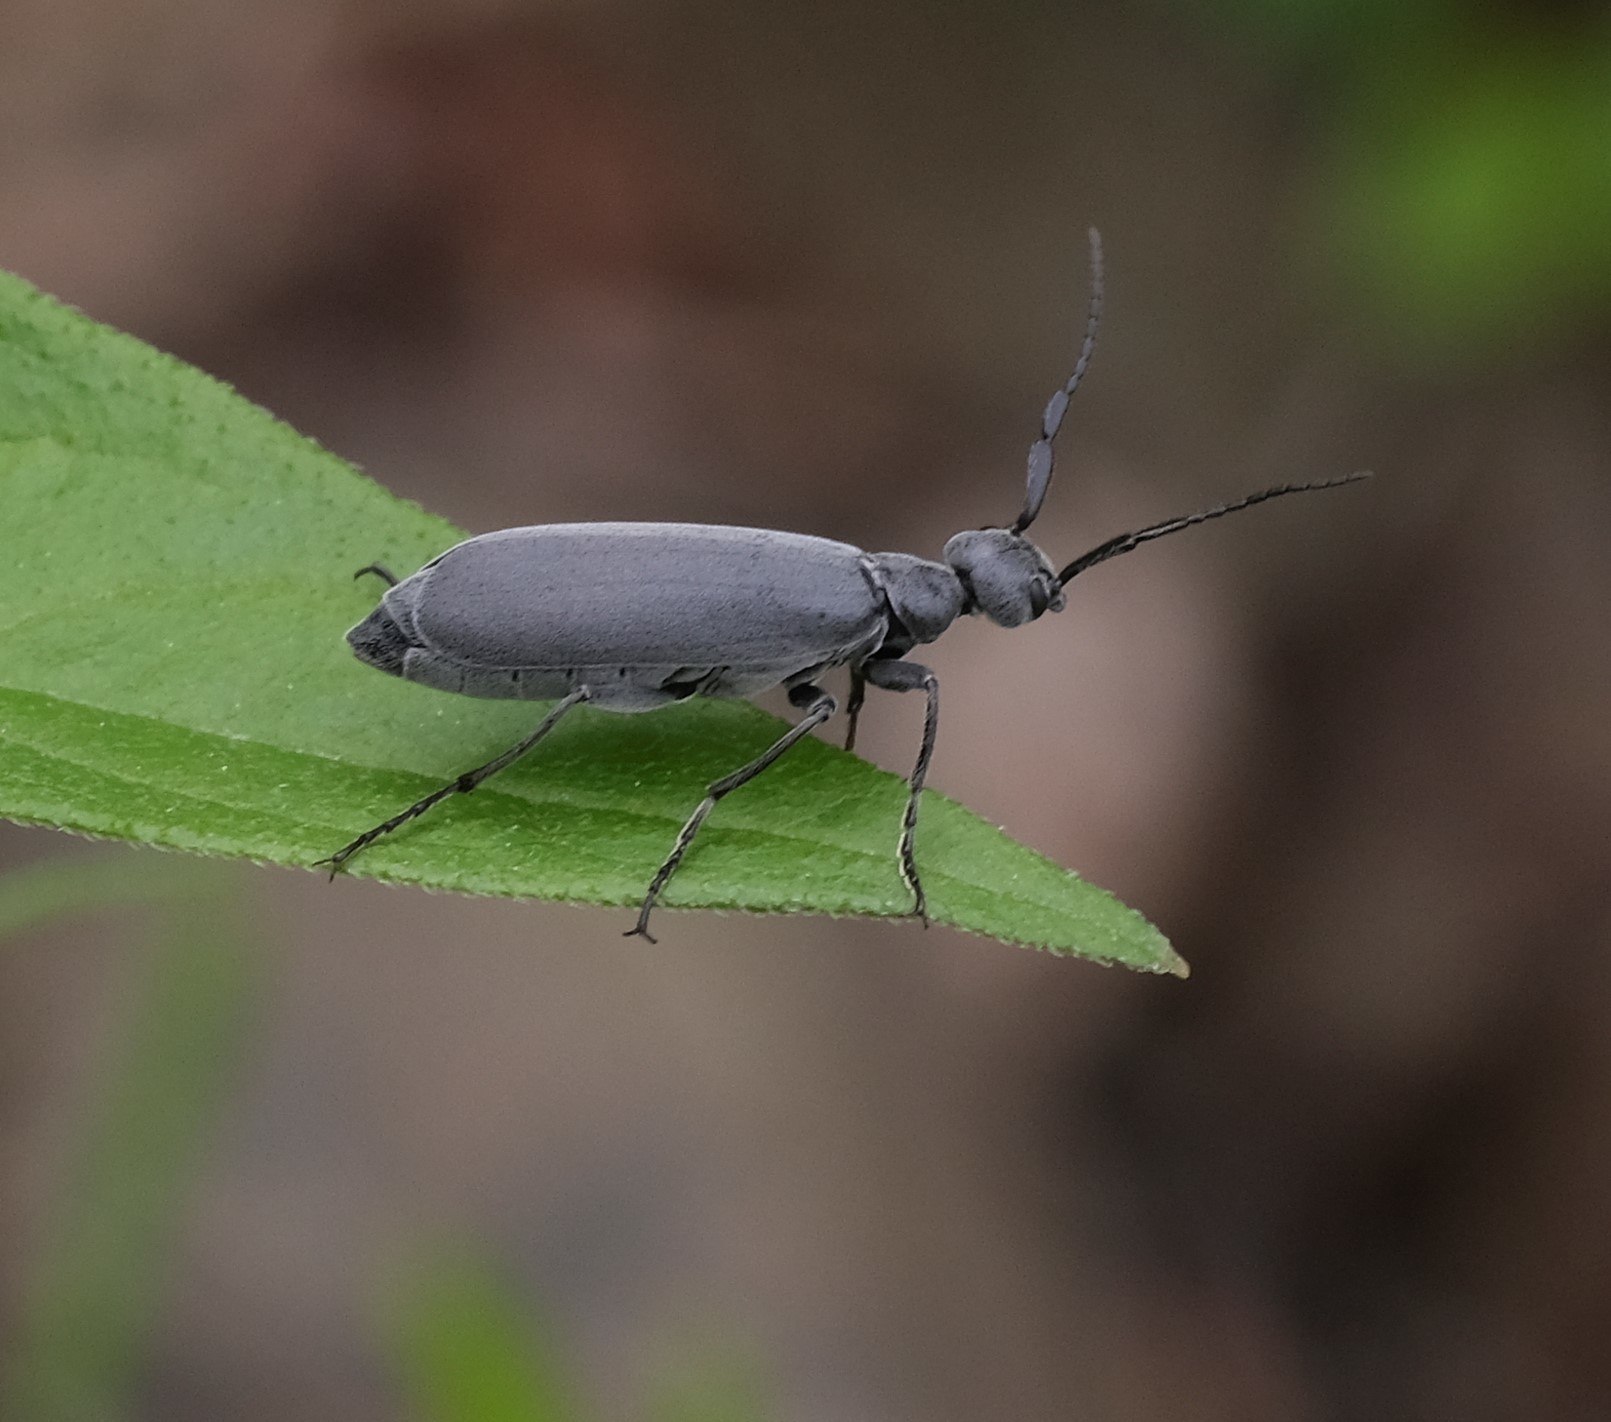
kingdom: Animalia
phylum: Arthropoda
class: Insecta
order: Coleoptera
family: Meloidae
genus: Epicauta
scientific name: Epicauta murina
